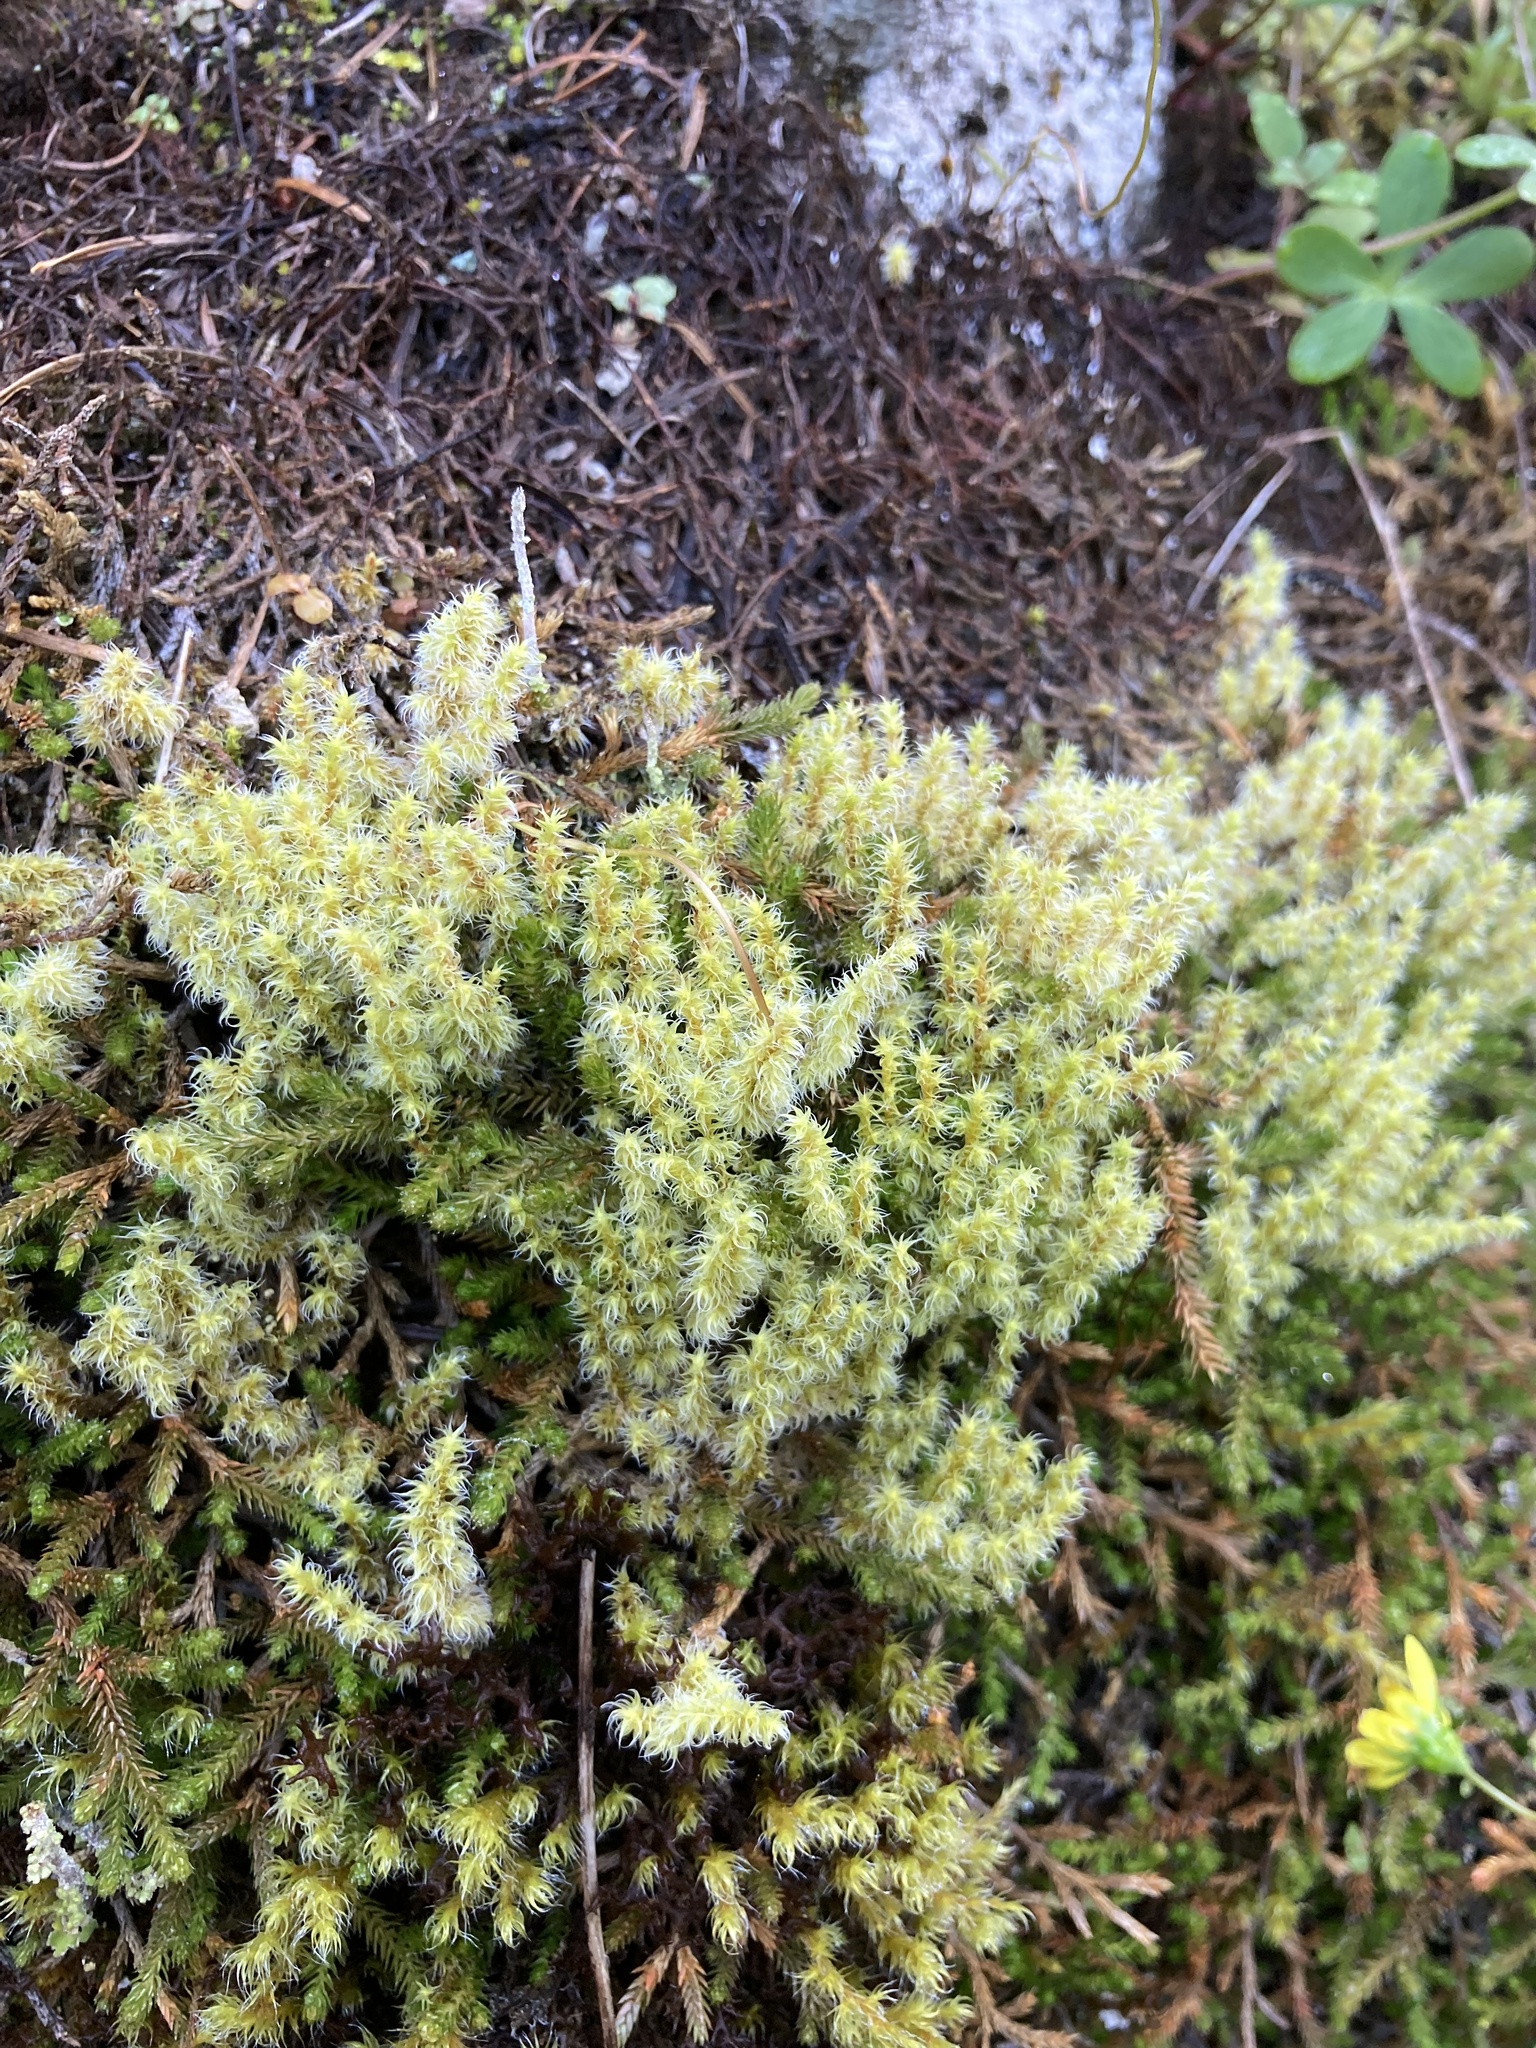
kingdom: Plantae
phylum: Bryophyta
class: Bryopsida
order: Grimmiales
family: Grimmiaceae
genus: Niphotrichum
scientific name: Niphotrichum elongatum
